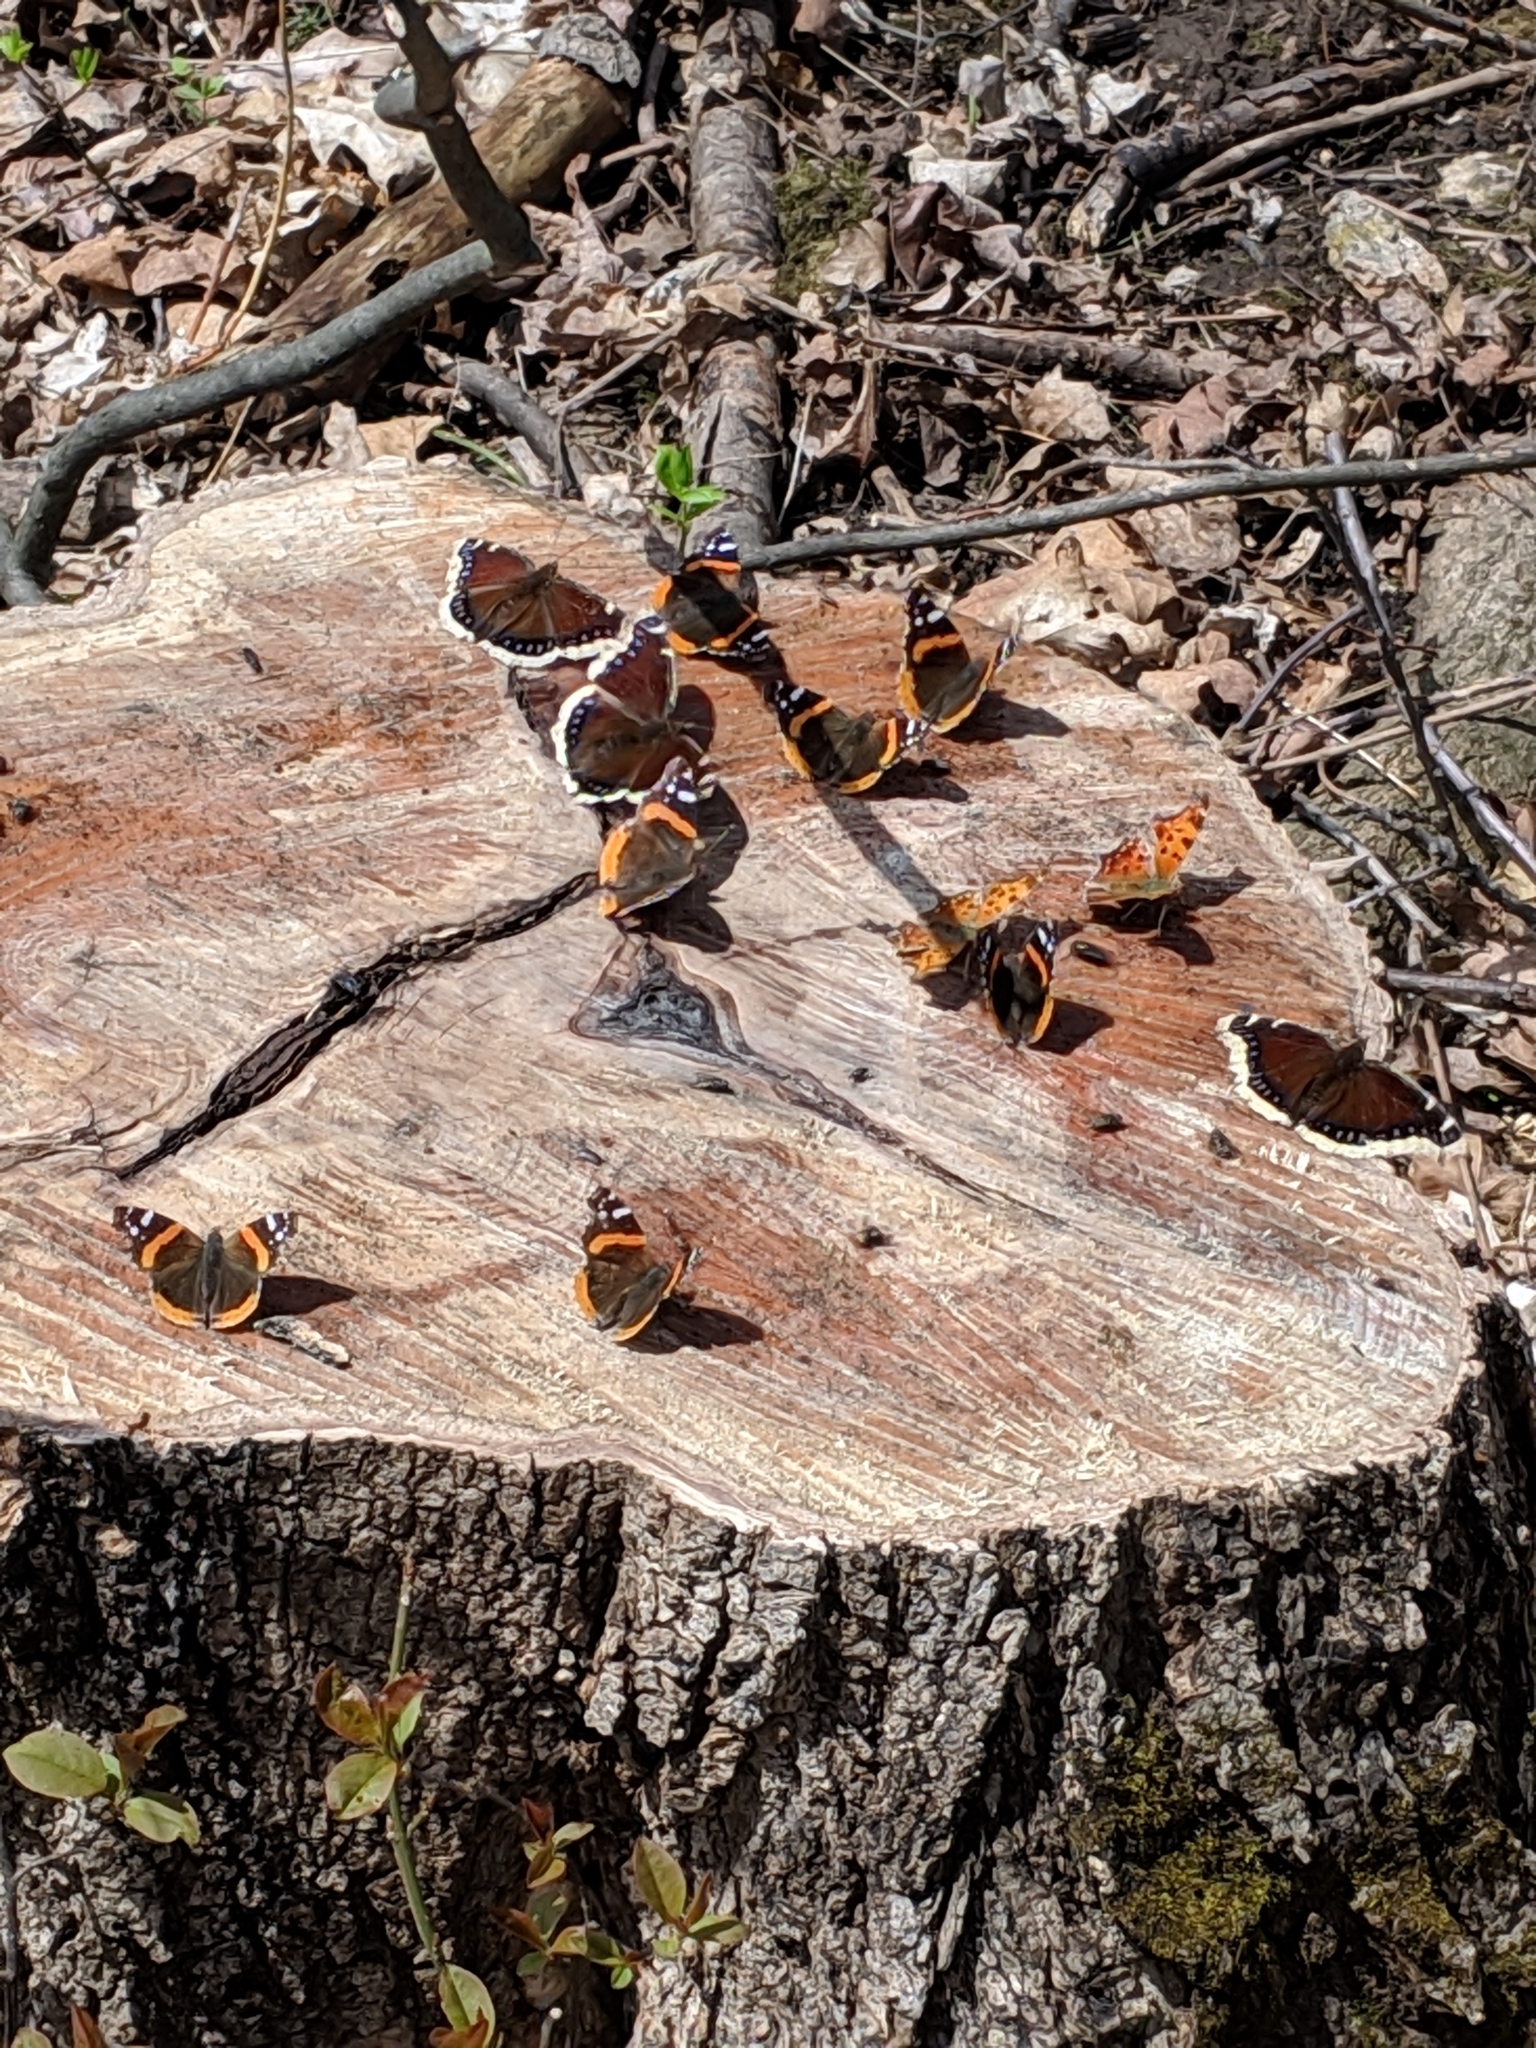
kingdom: Animalia
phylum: Arthropoda
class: Insecta
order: Lepidoptera
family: Nymphalidae
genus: Nymphalis
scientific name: Nymphalis antiopa
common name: Camberwell beauty
